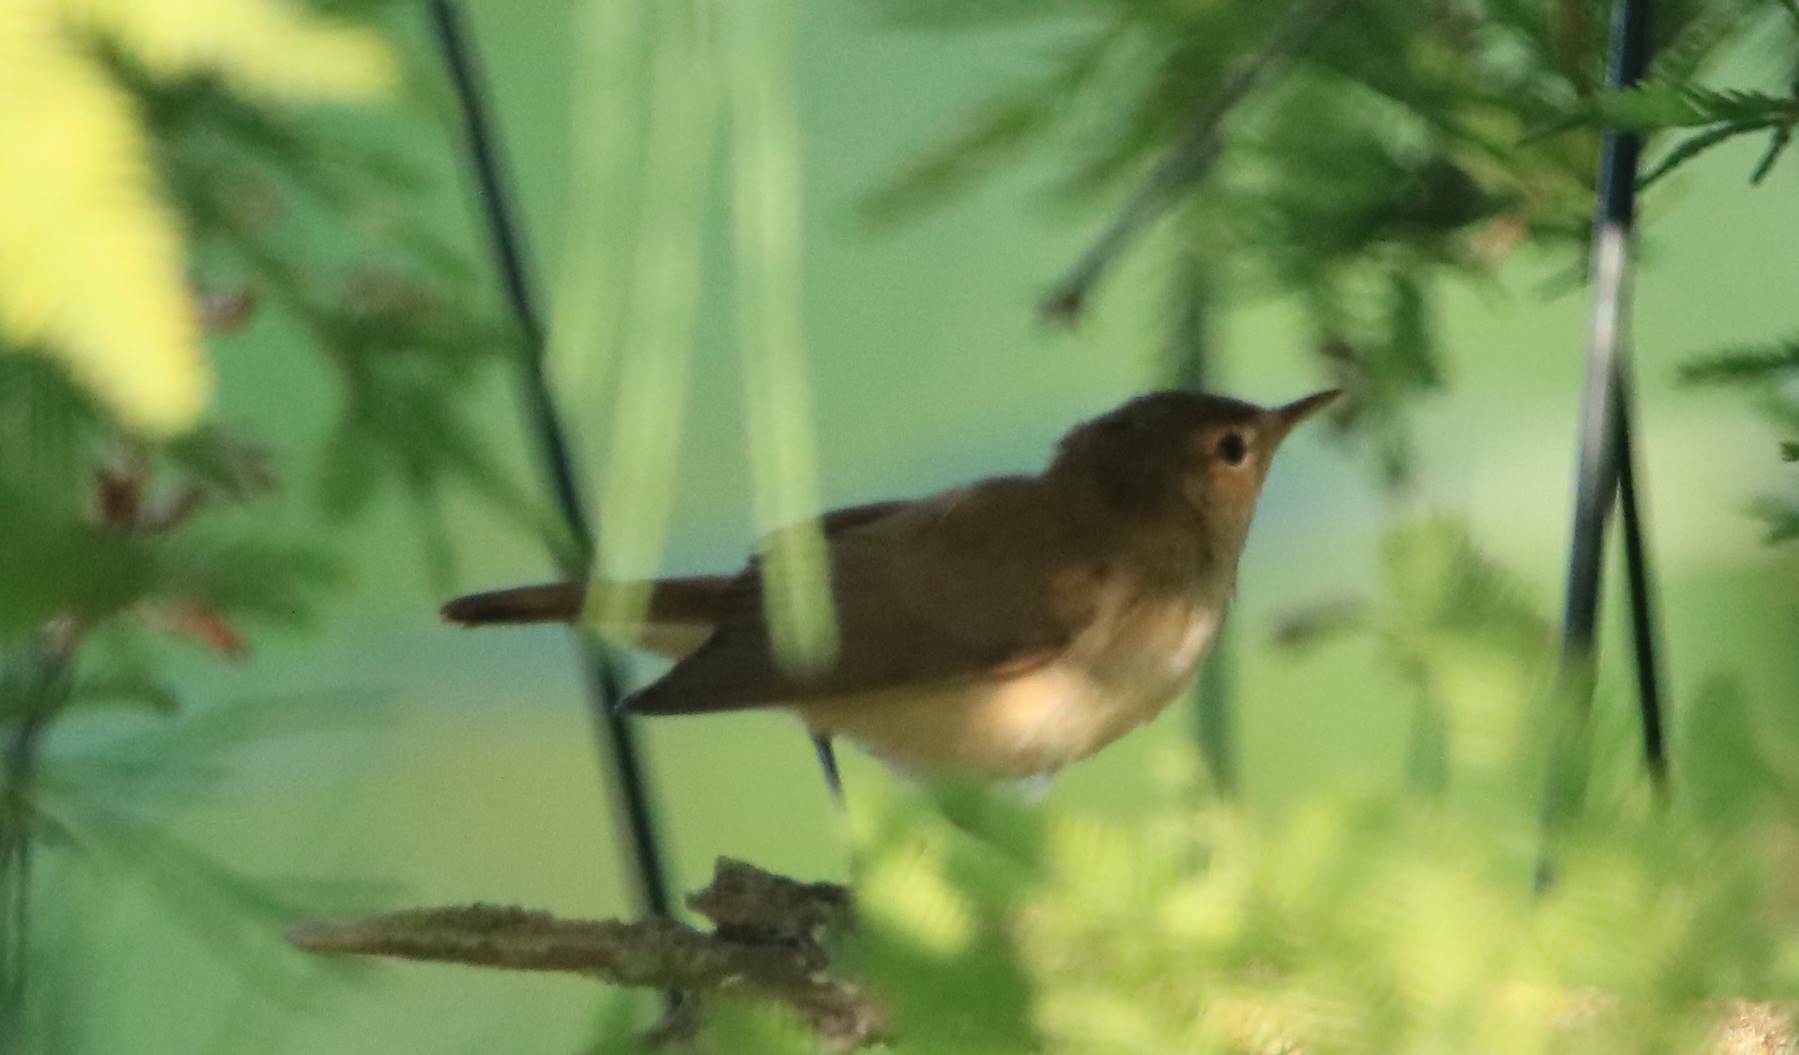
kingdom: Animalia
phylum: Chordata
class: Aves
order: Passeriformes
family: Acrocephalidae
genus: Acrocephalus
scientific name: Acrocephalus scirpaceus
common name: Eurasian reed warbler
